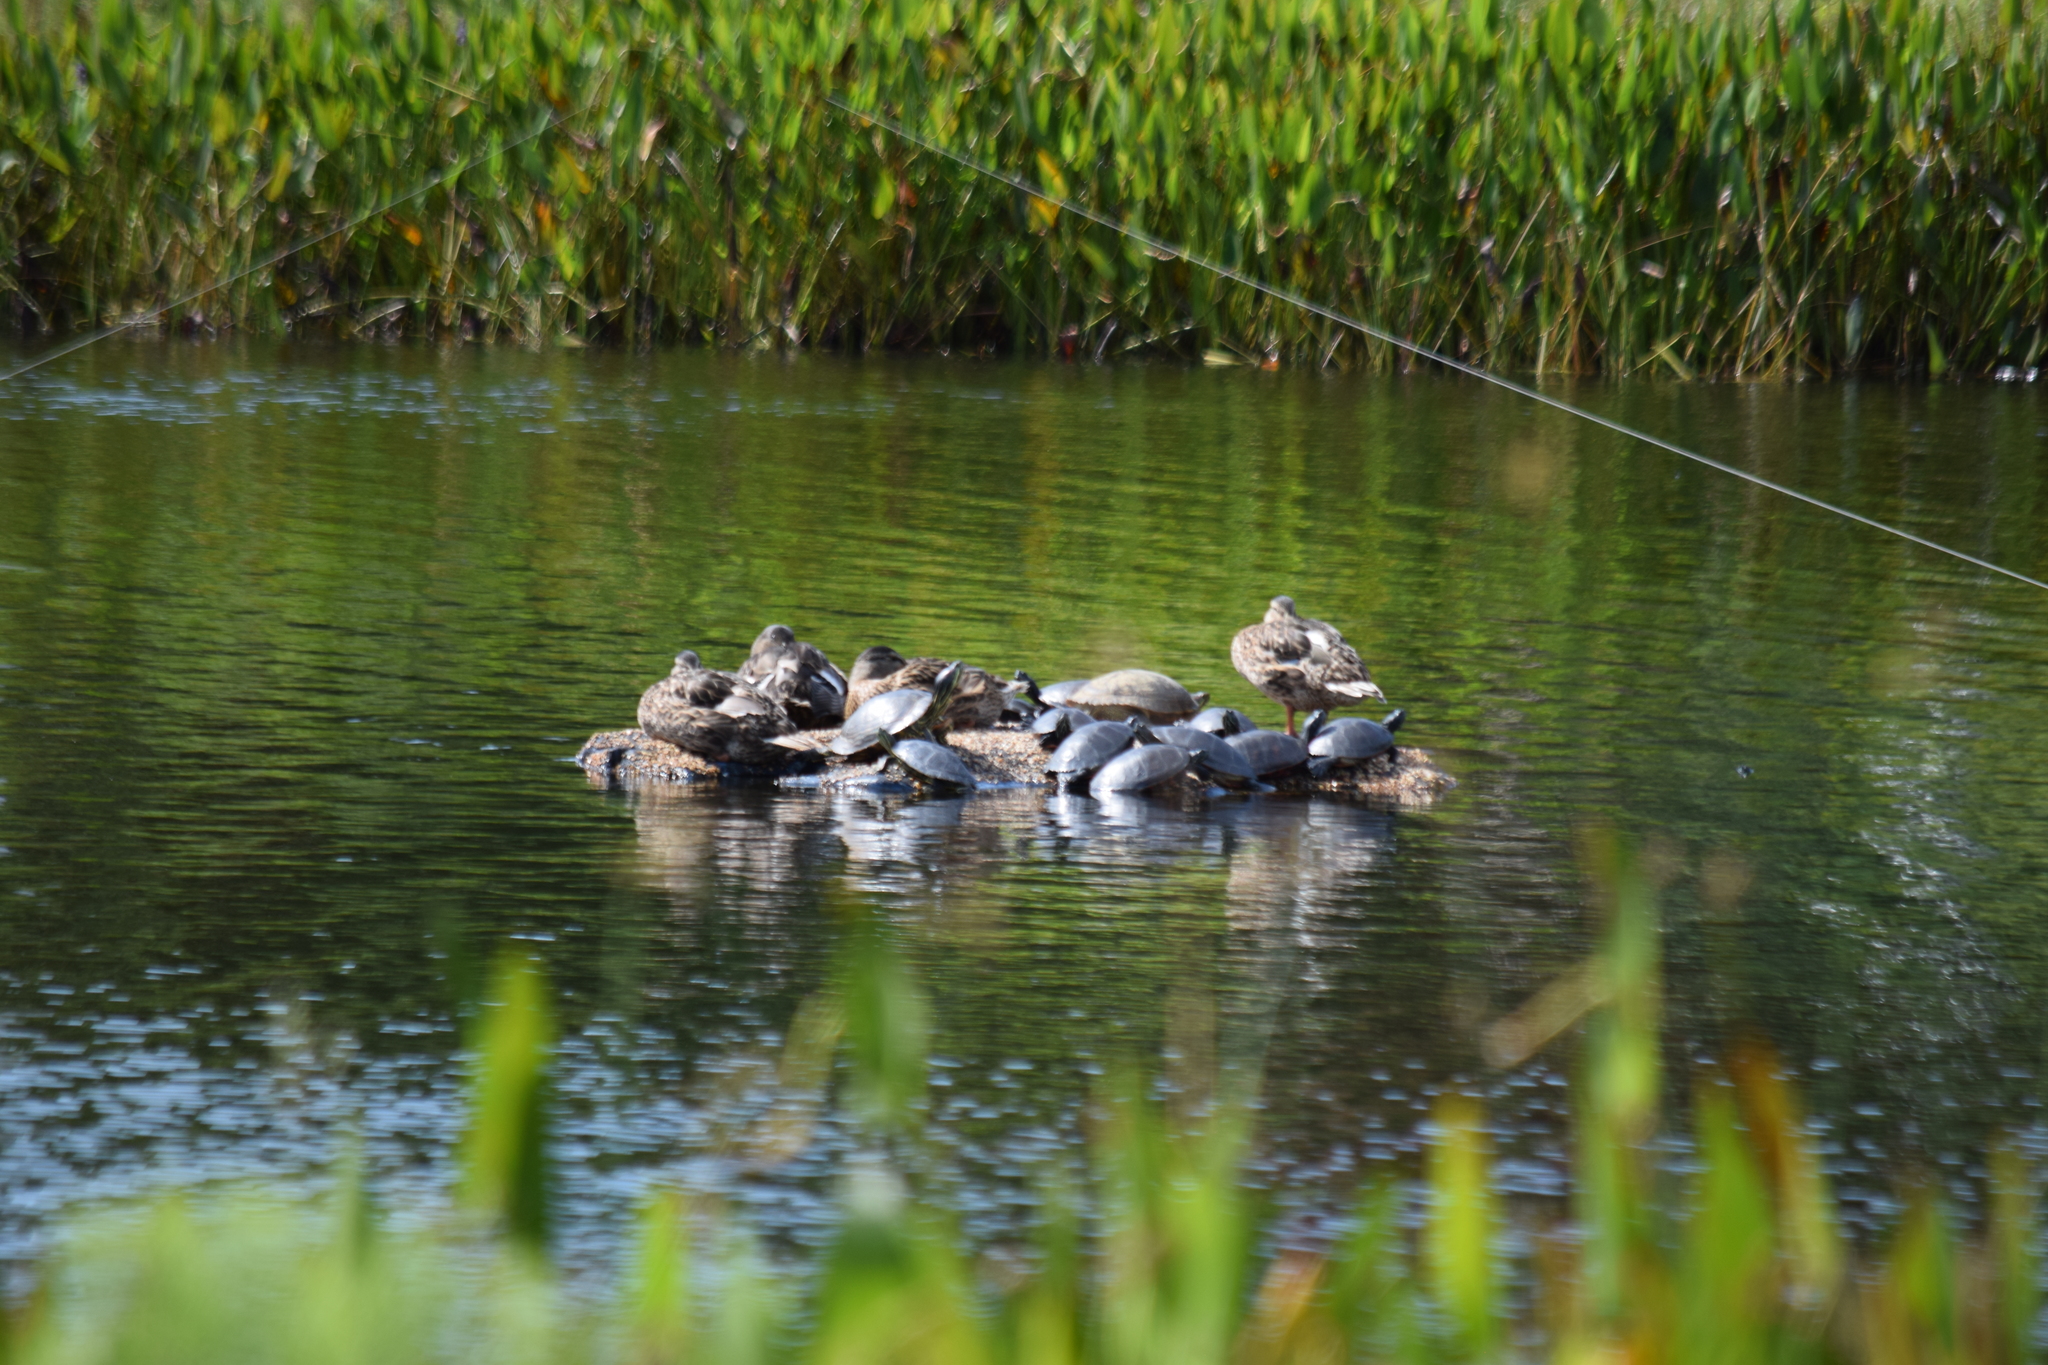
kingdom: Animalia
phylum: Chordata
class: Aves
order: Anseriformes
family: Anatidae
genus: Anas
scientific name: Anas platyrhynchos
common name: Mallard
